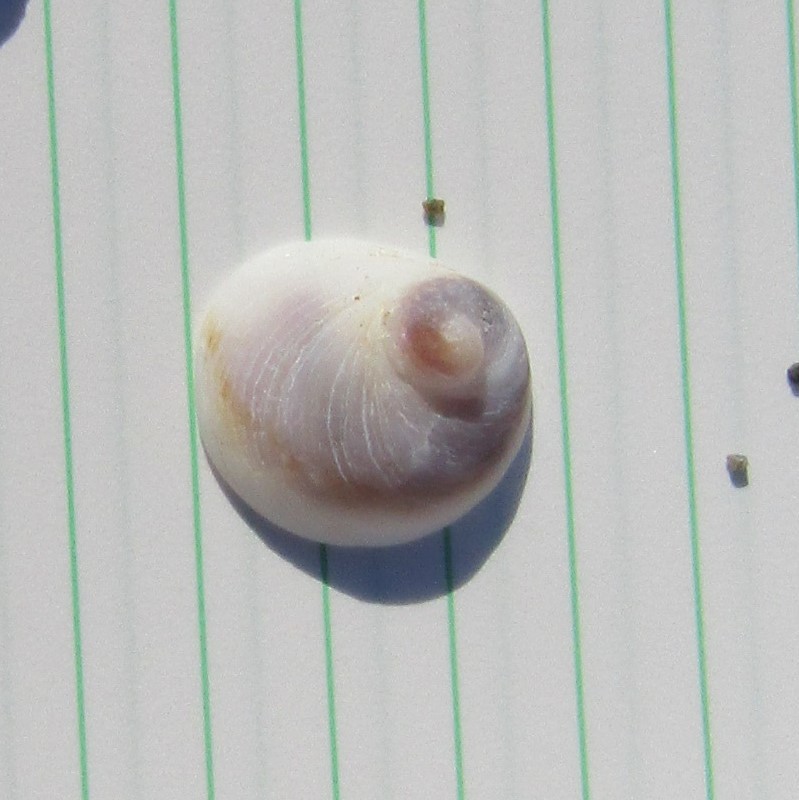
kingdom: Animalia
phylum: Mollusca
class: Gastropoda
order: Littorinimorpha
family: Calyptraeidae
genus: Sigapatella
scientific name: Sigapatella novaezelandiae
